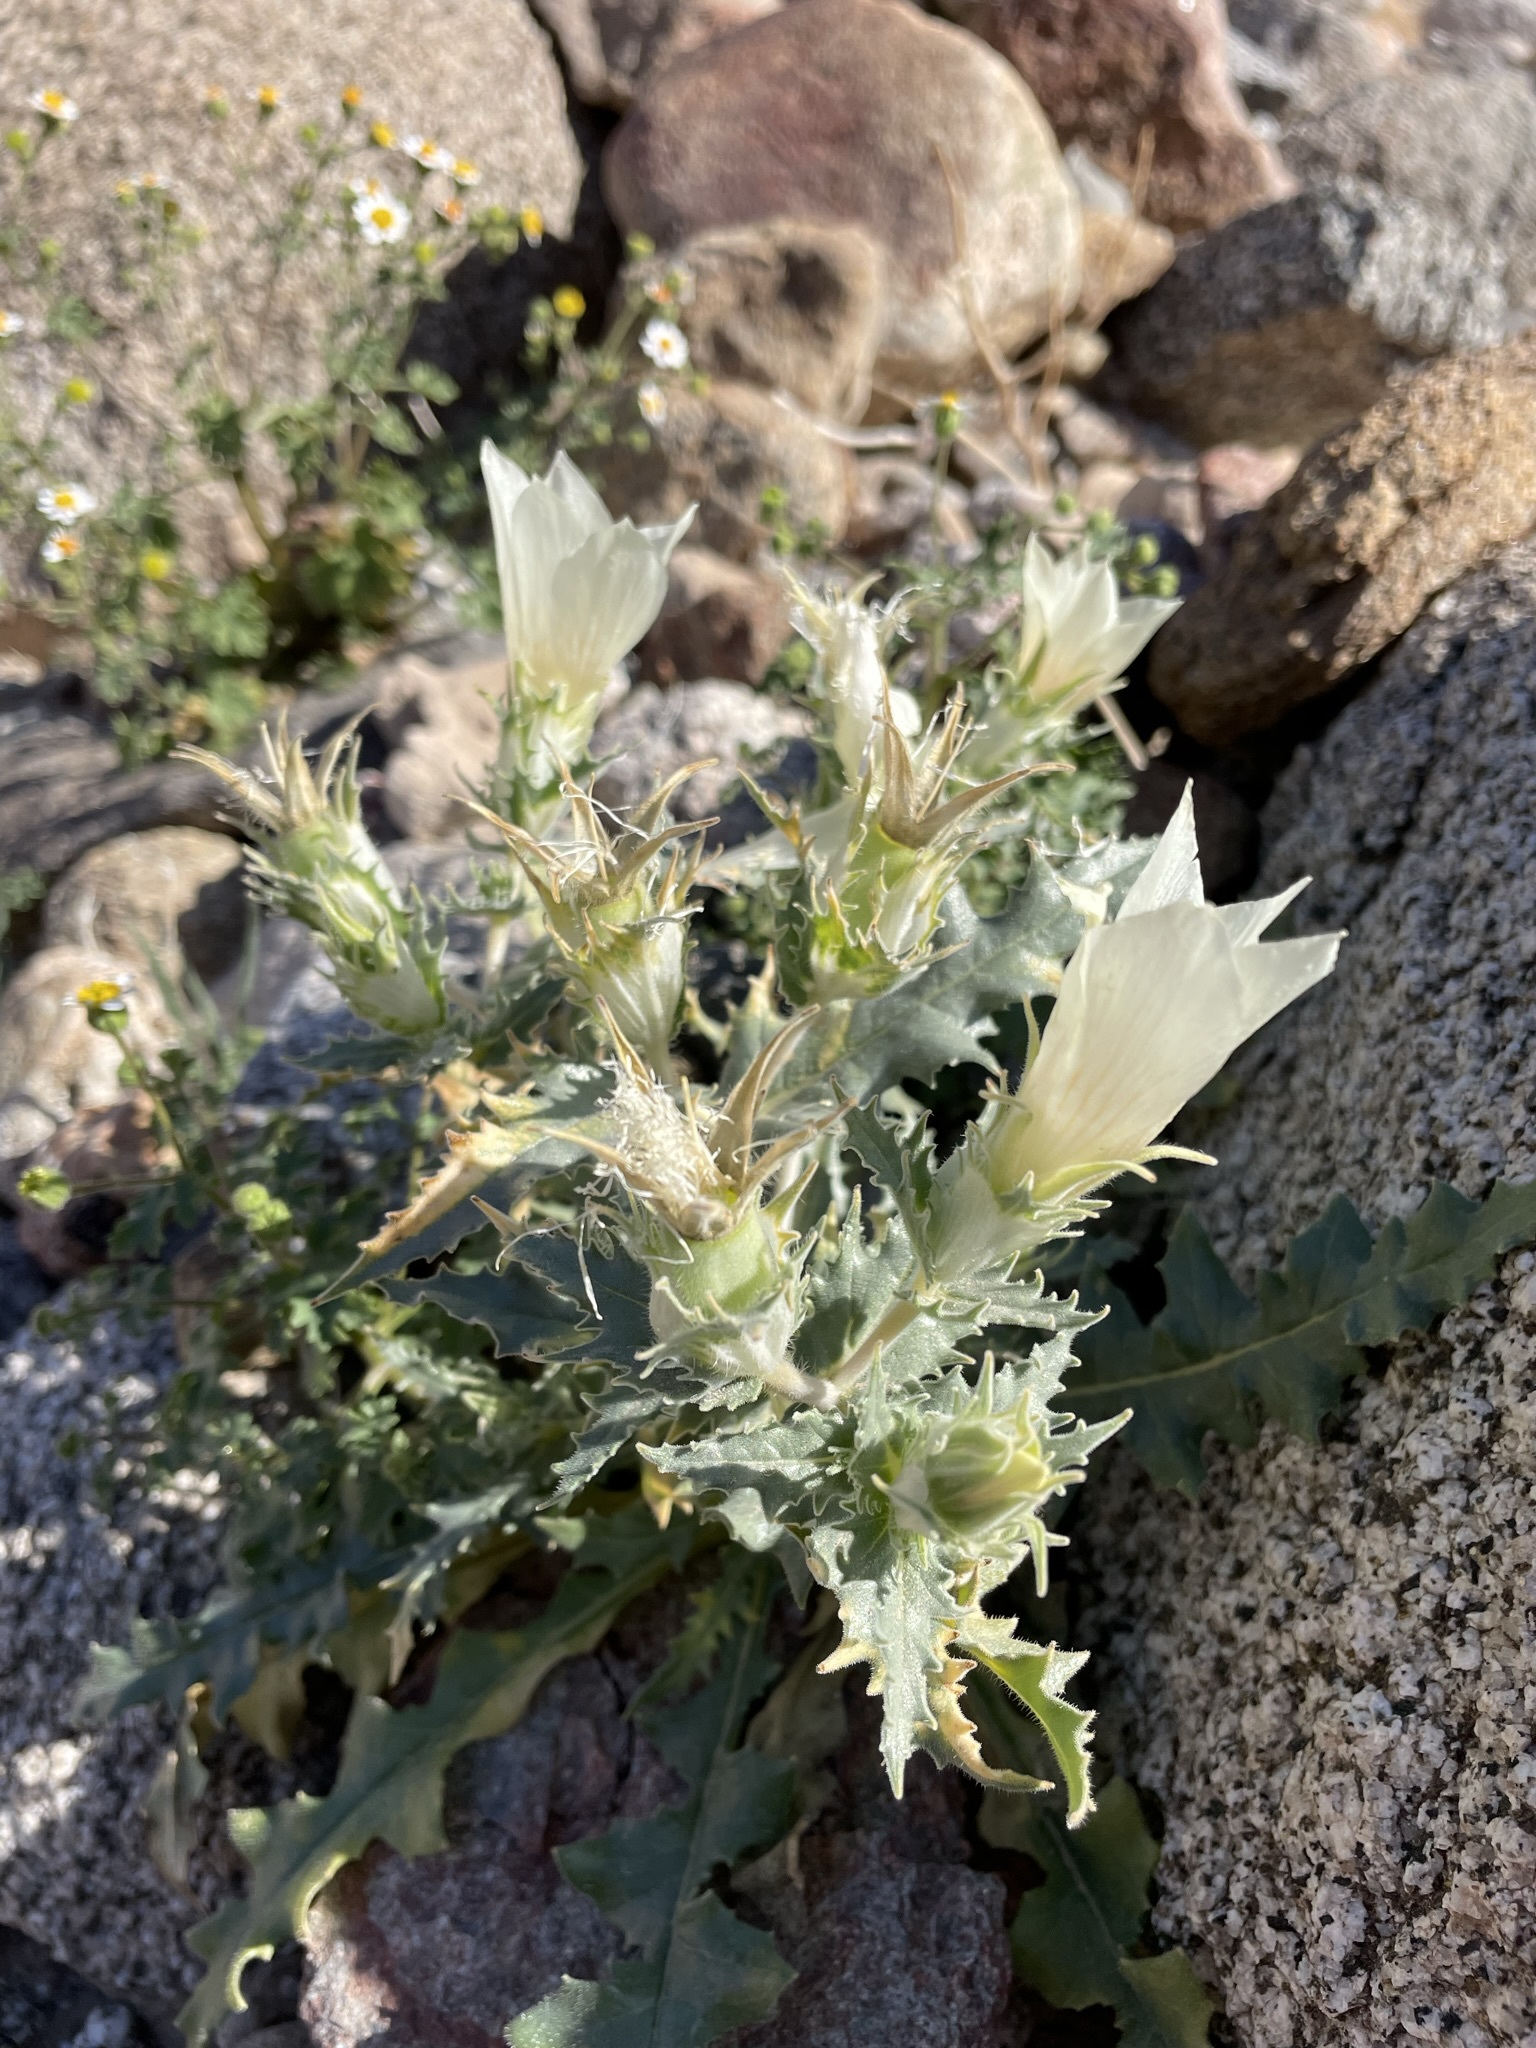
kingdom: Plantae
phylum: Tracheophyta
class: Magnoliopsida
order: Cornales
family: Loasaceae
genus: Mentzelia
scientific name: Mentzelia involucrata
